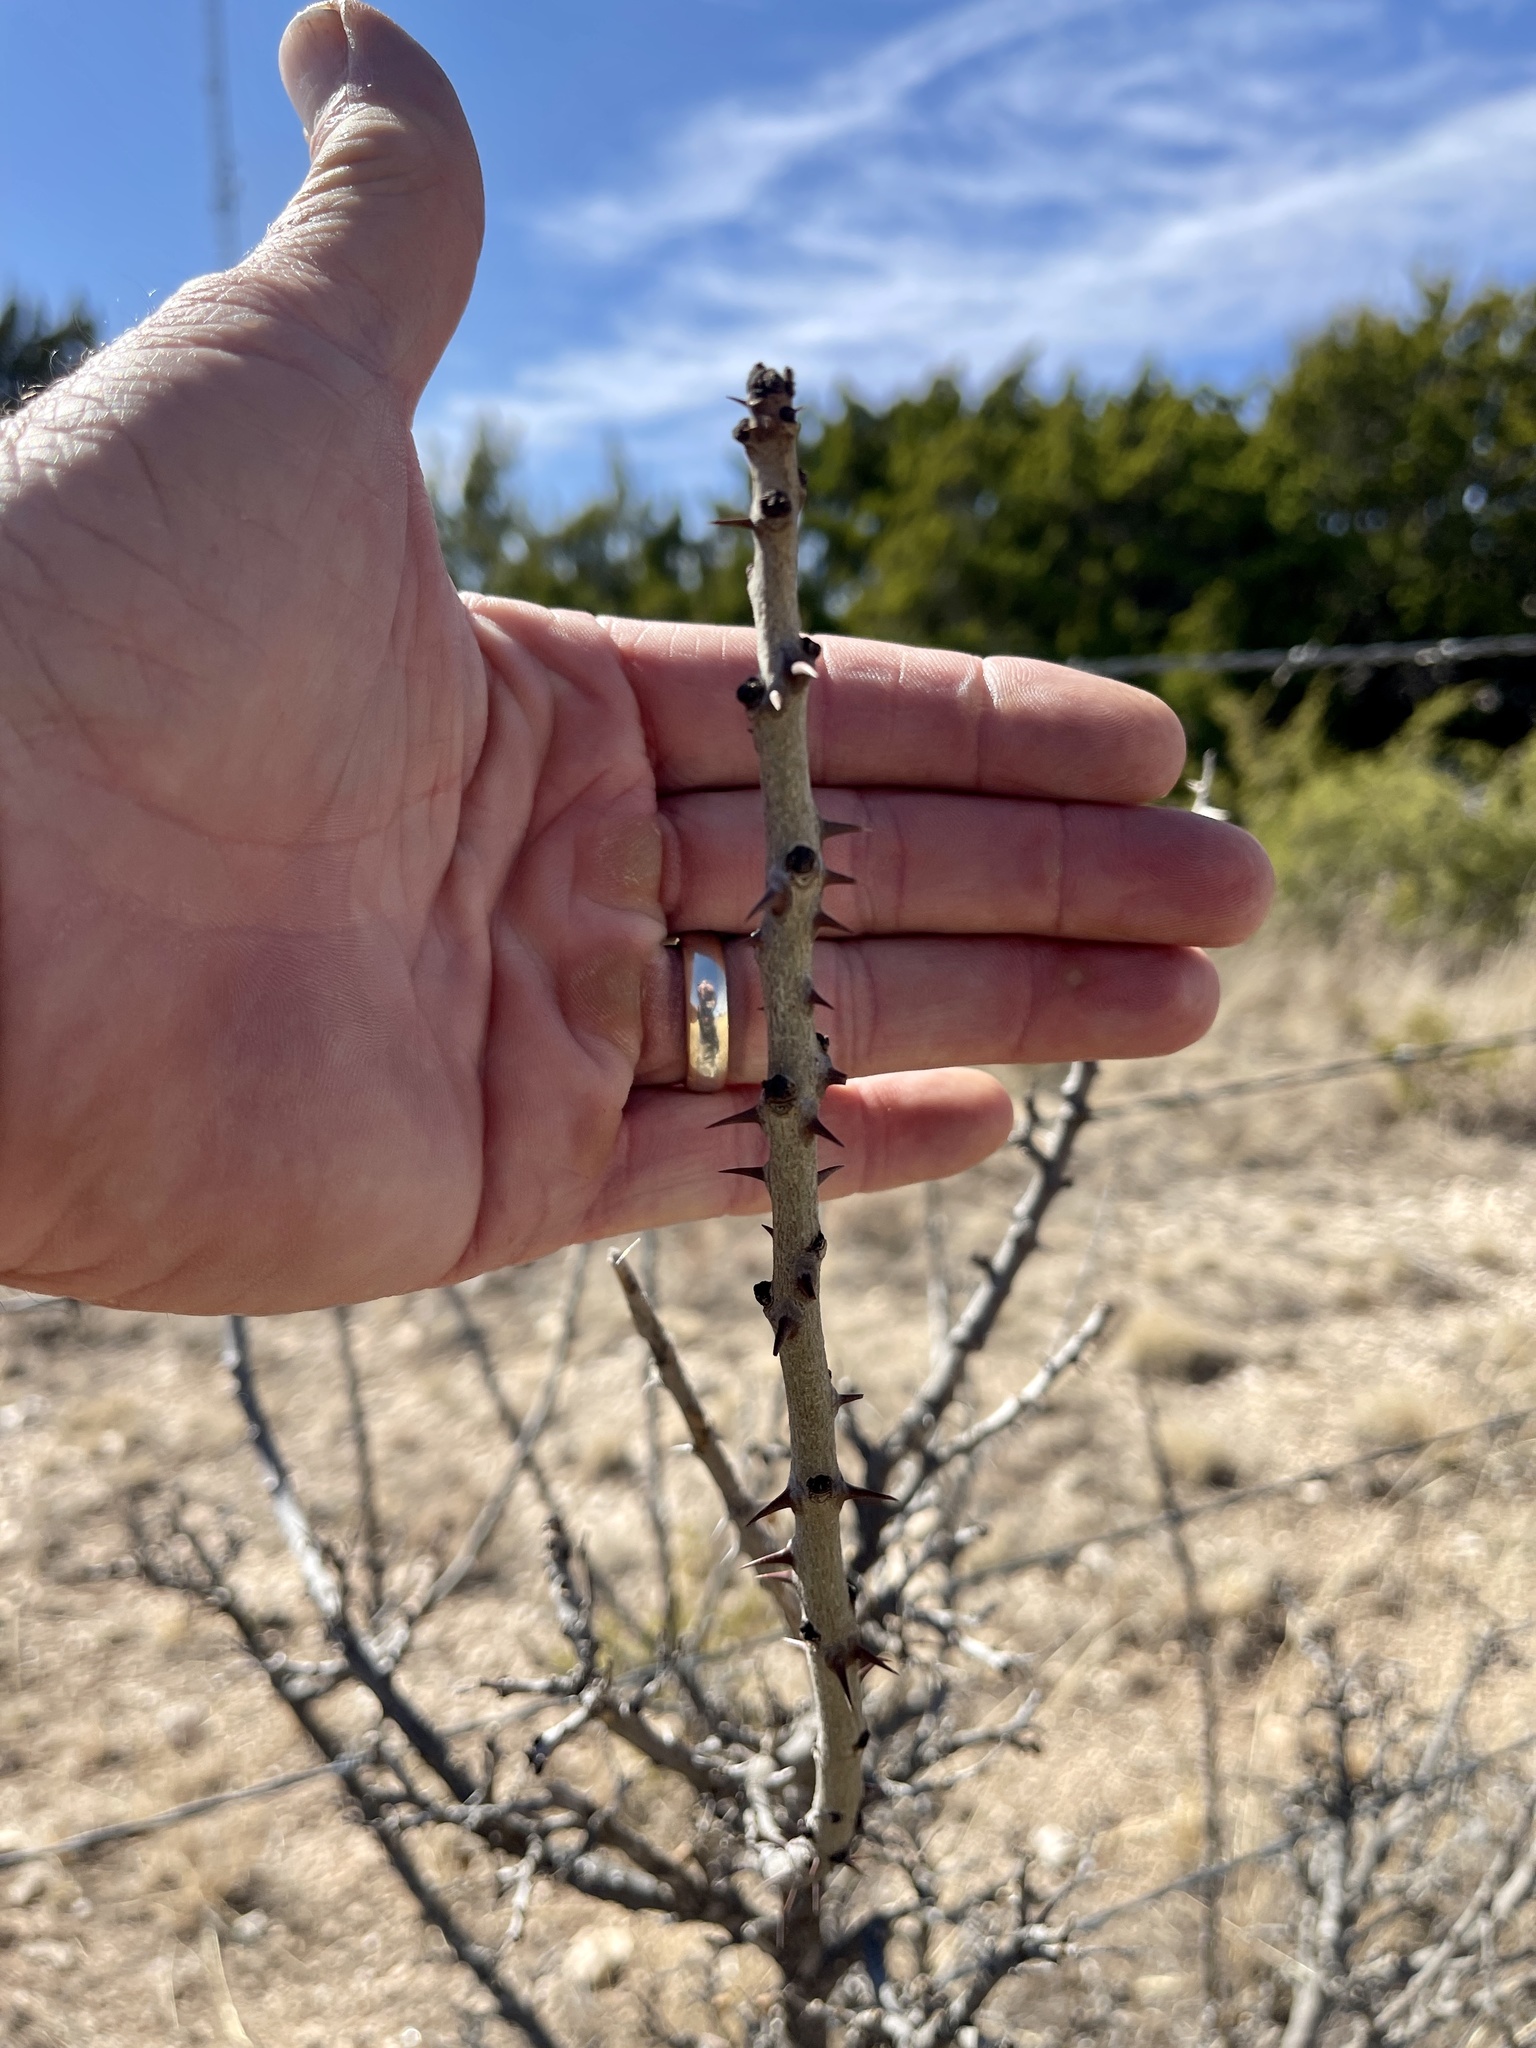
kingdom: Plantae
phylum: Tracheophyta
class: Magnoliopsida
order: Sapindales
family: Rutaceae
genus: Zanthoxylum
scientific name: Zanthoxylum clava-herculis
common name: Hercules'-club
